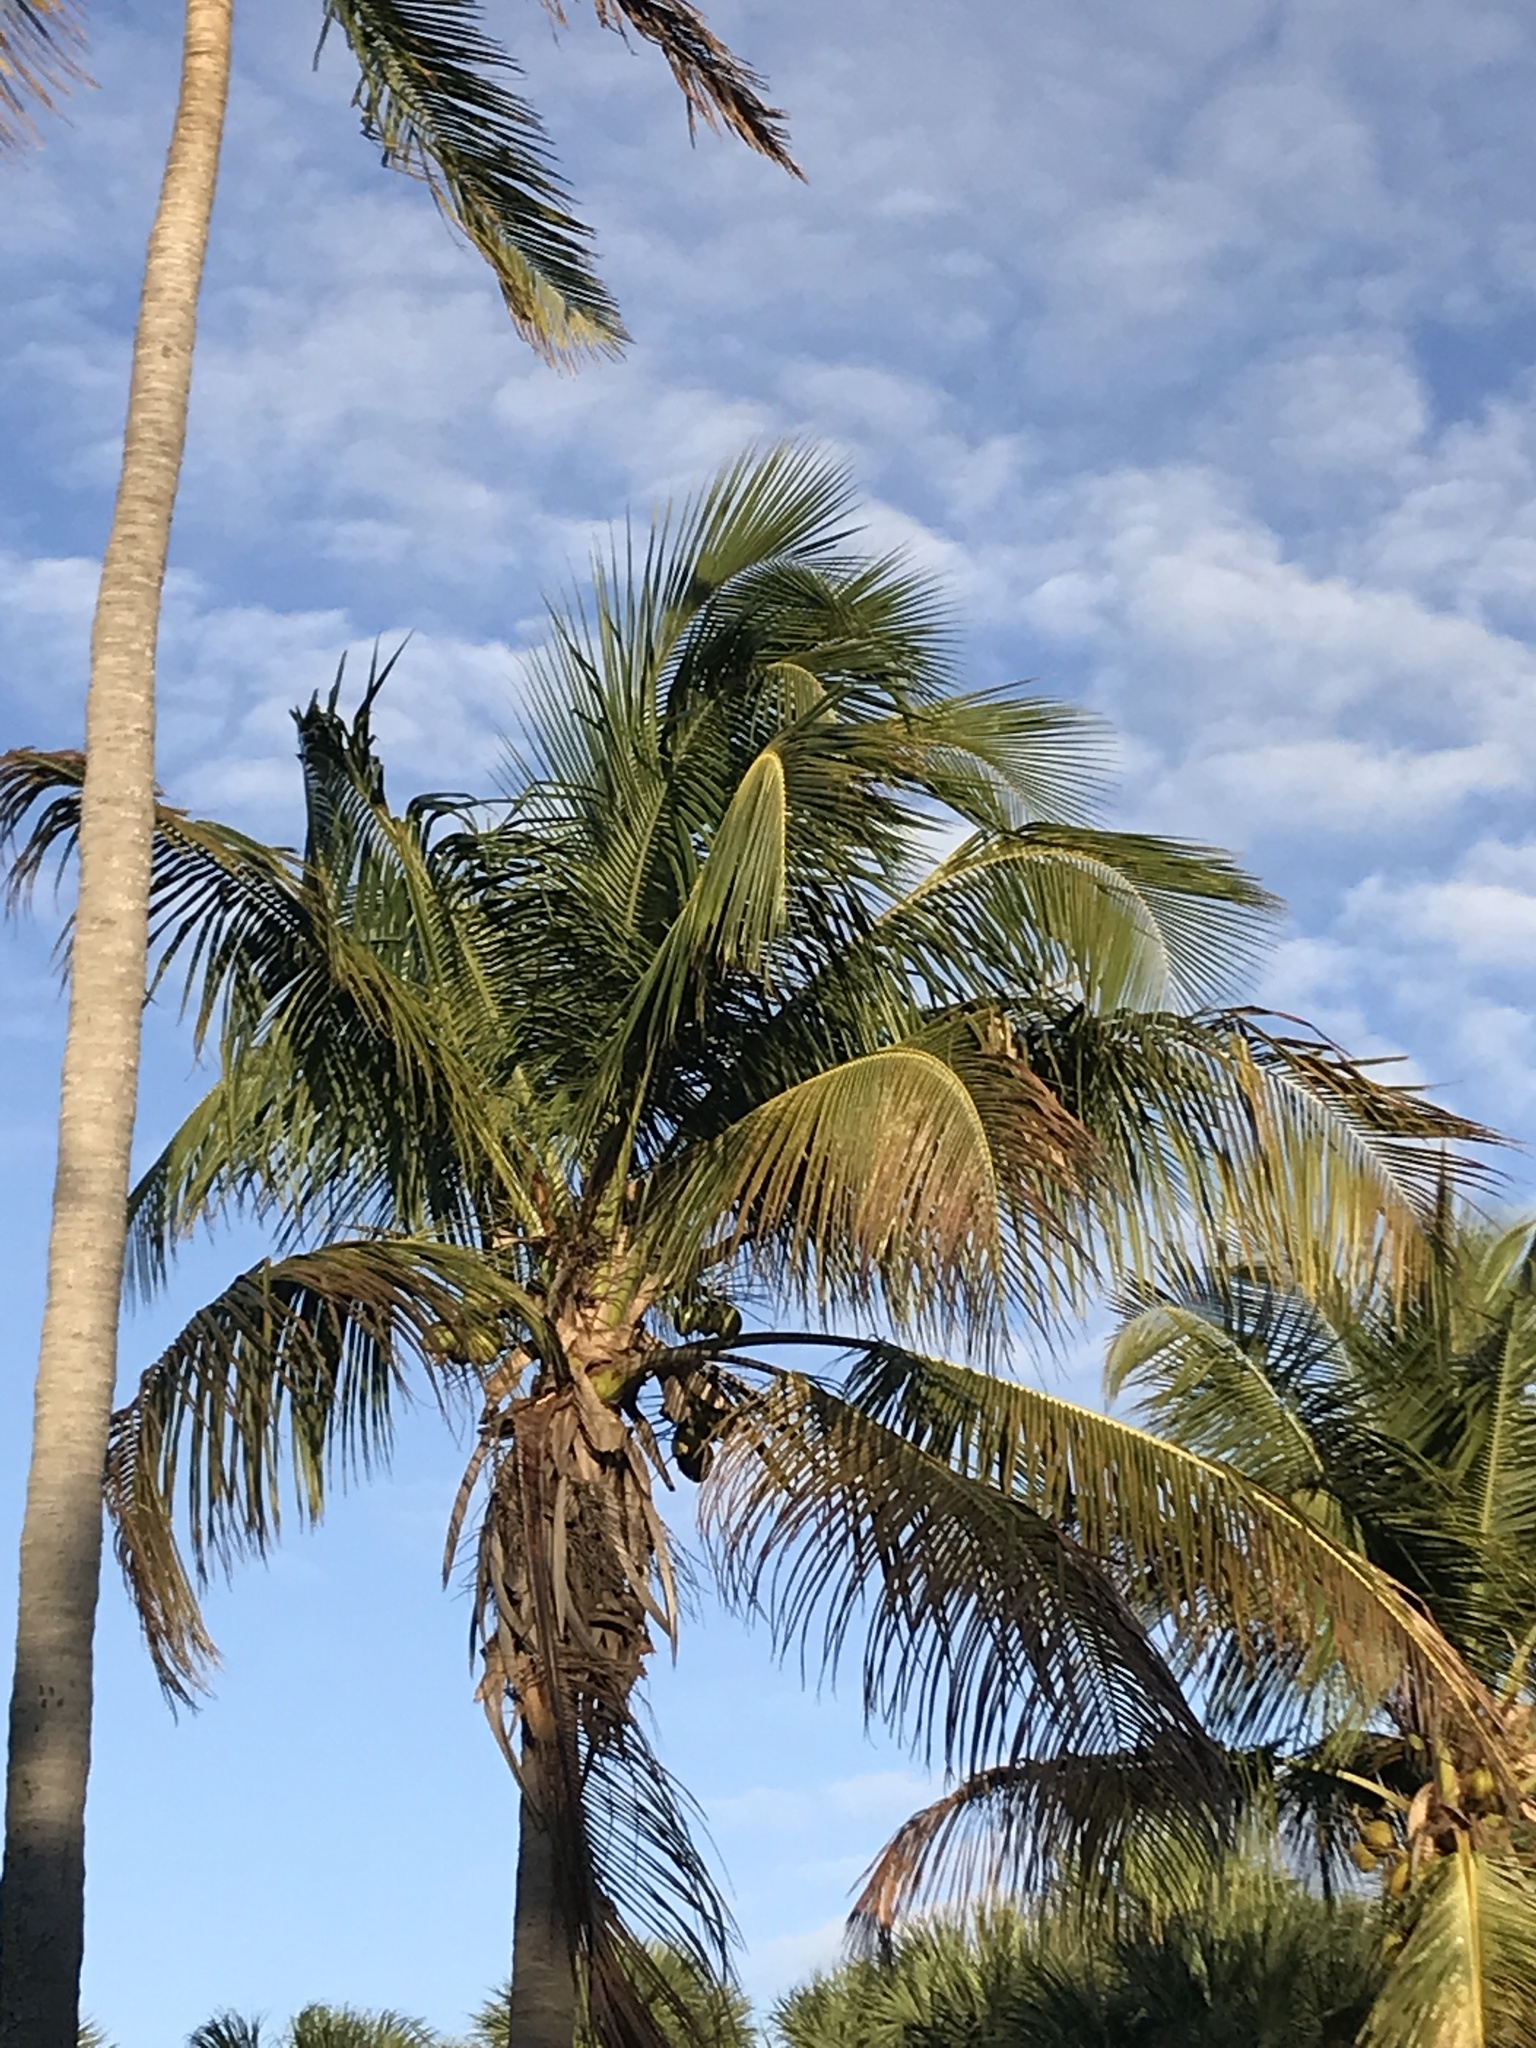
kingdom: Plantae
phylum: Tracheophyta
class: Liliopsida
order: Arecales
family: Arecaceae
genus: Cocos
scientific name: Cocos nucifera
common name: Coconut palm
